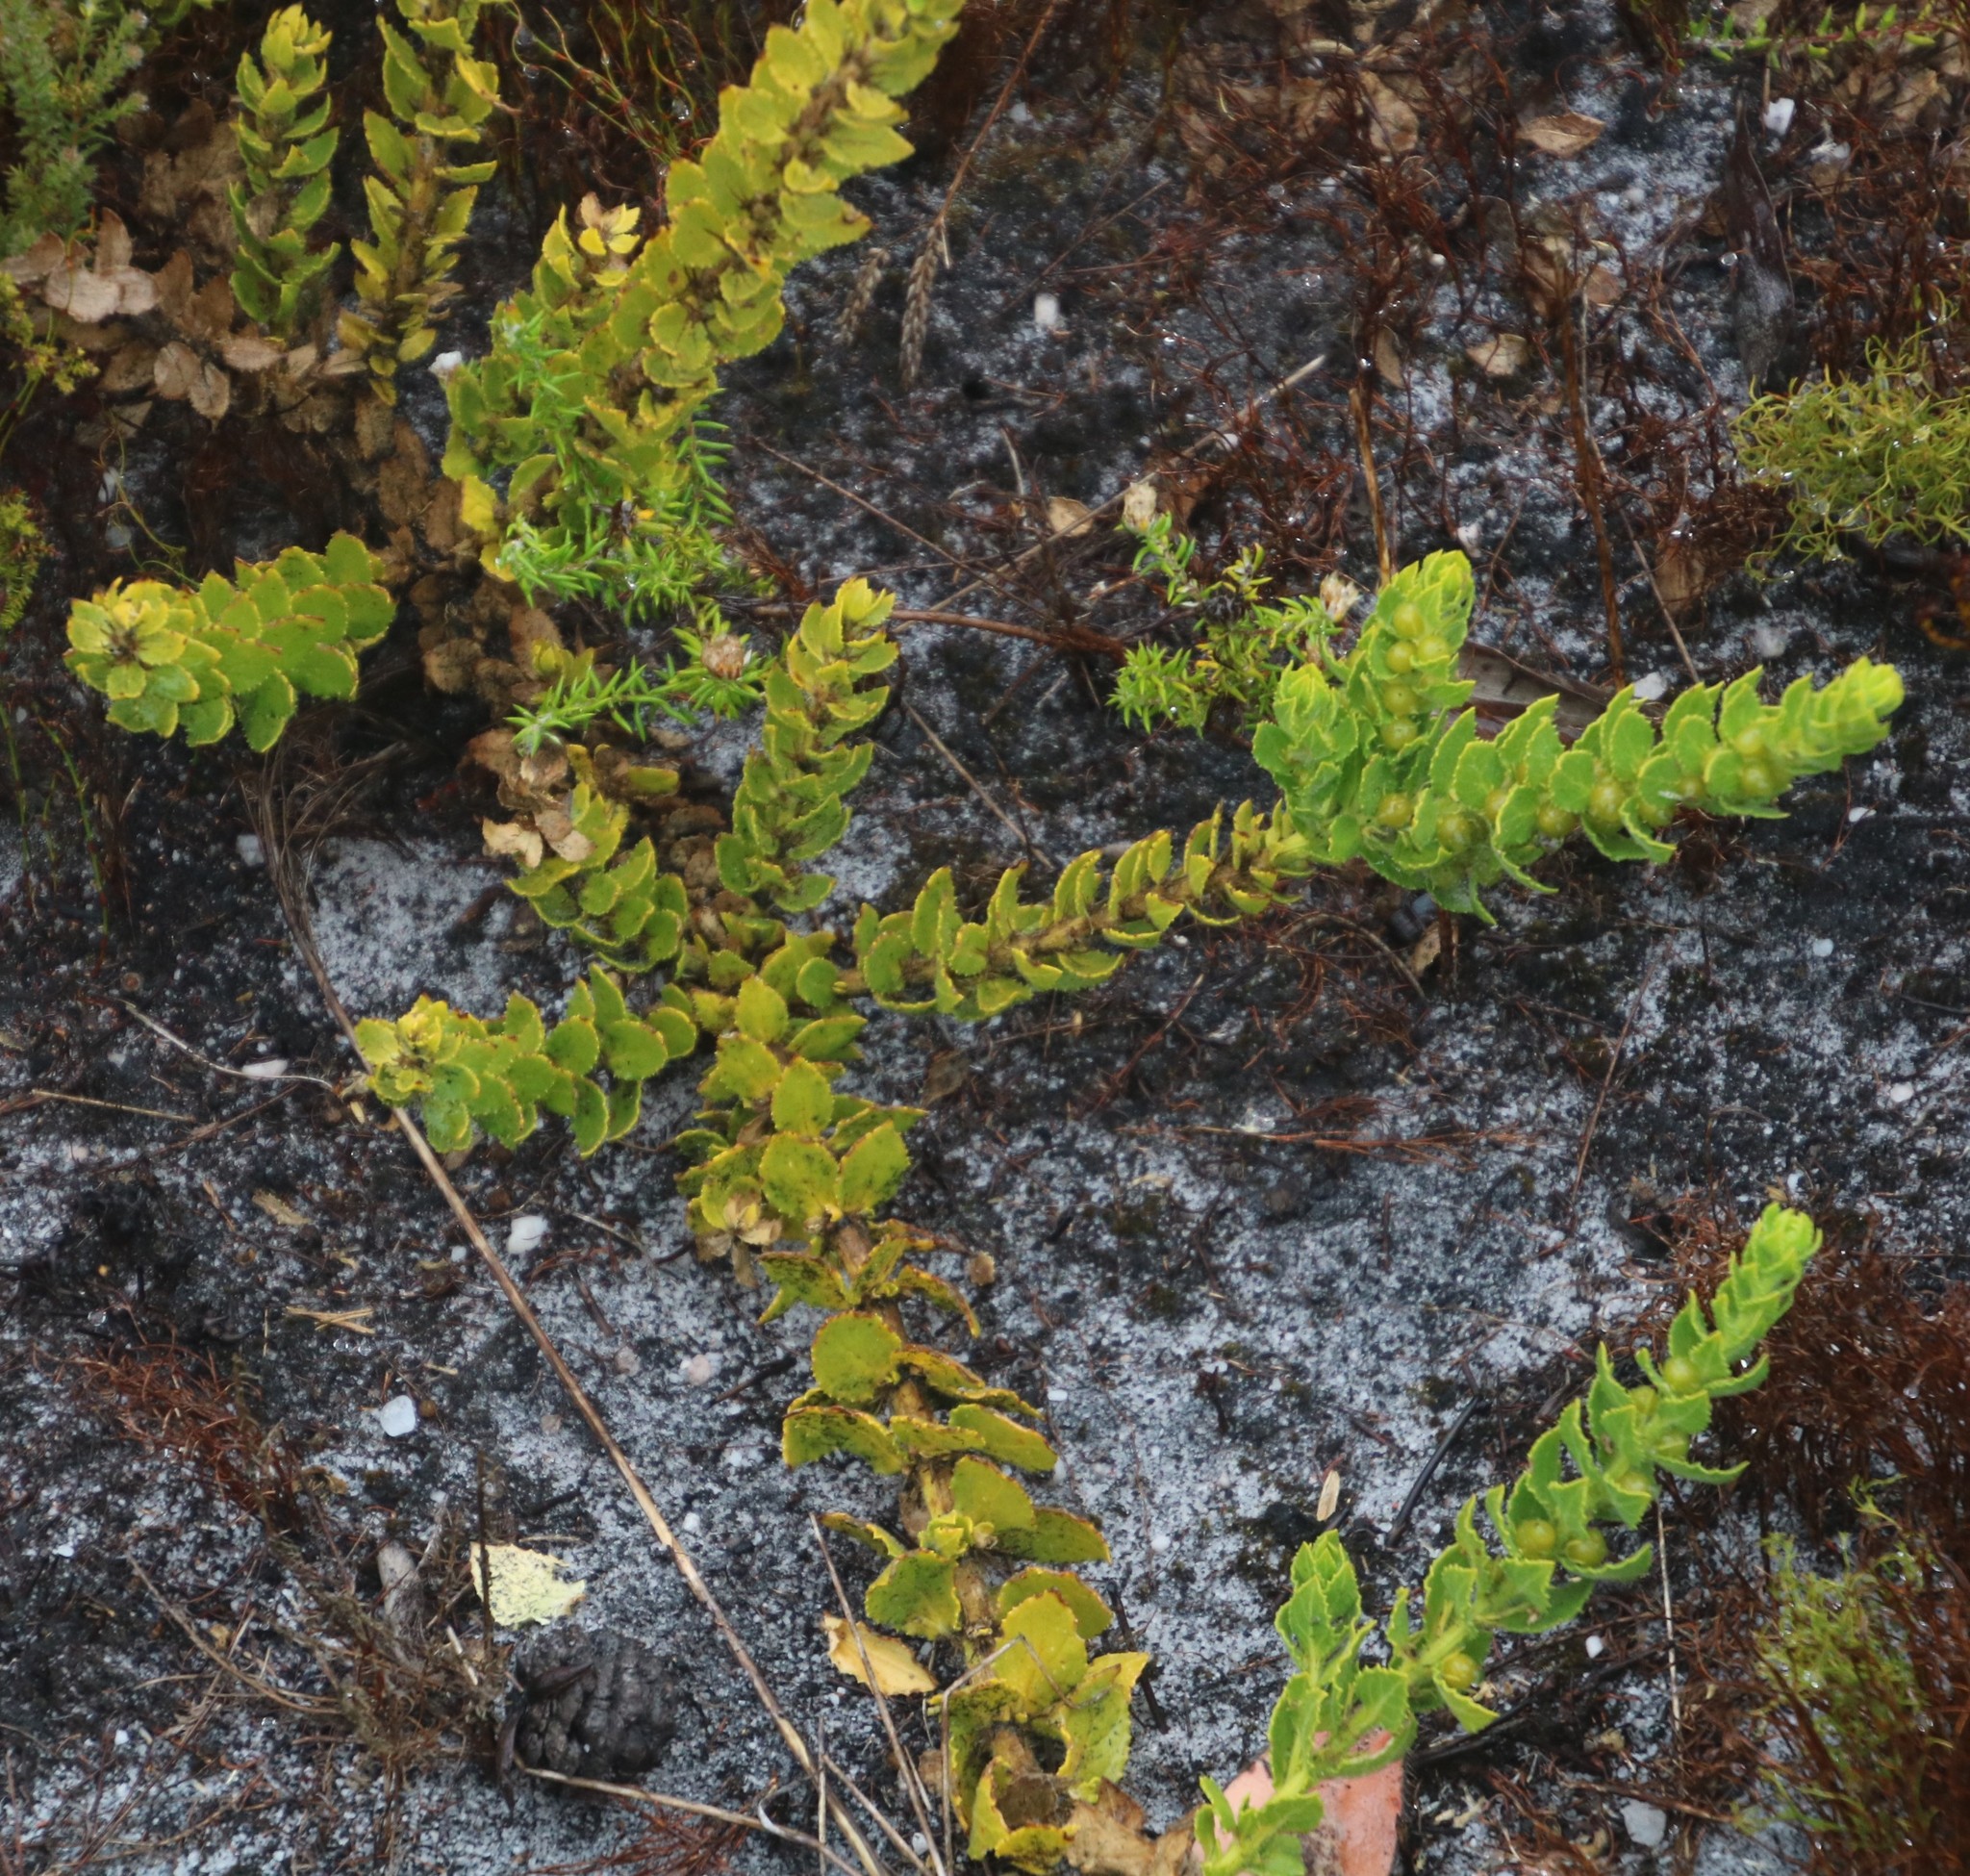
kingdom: Plantae
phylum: Tracheophyta
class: Magnoliopsida
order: Lamiales
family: Scrophulariaceae
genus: Oftia
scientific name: Oftia africana
